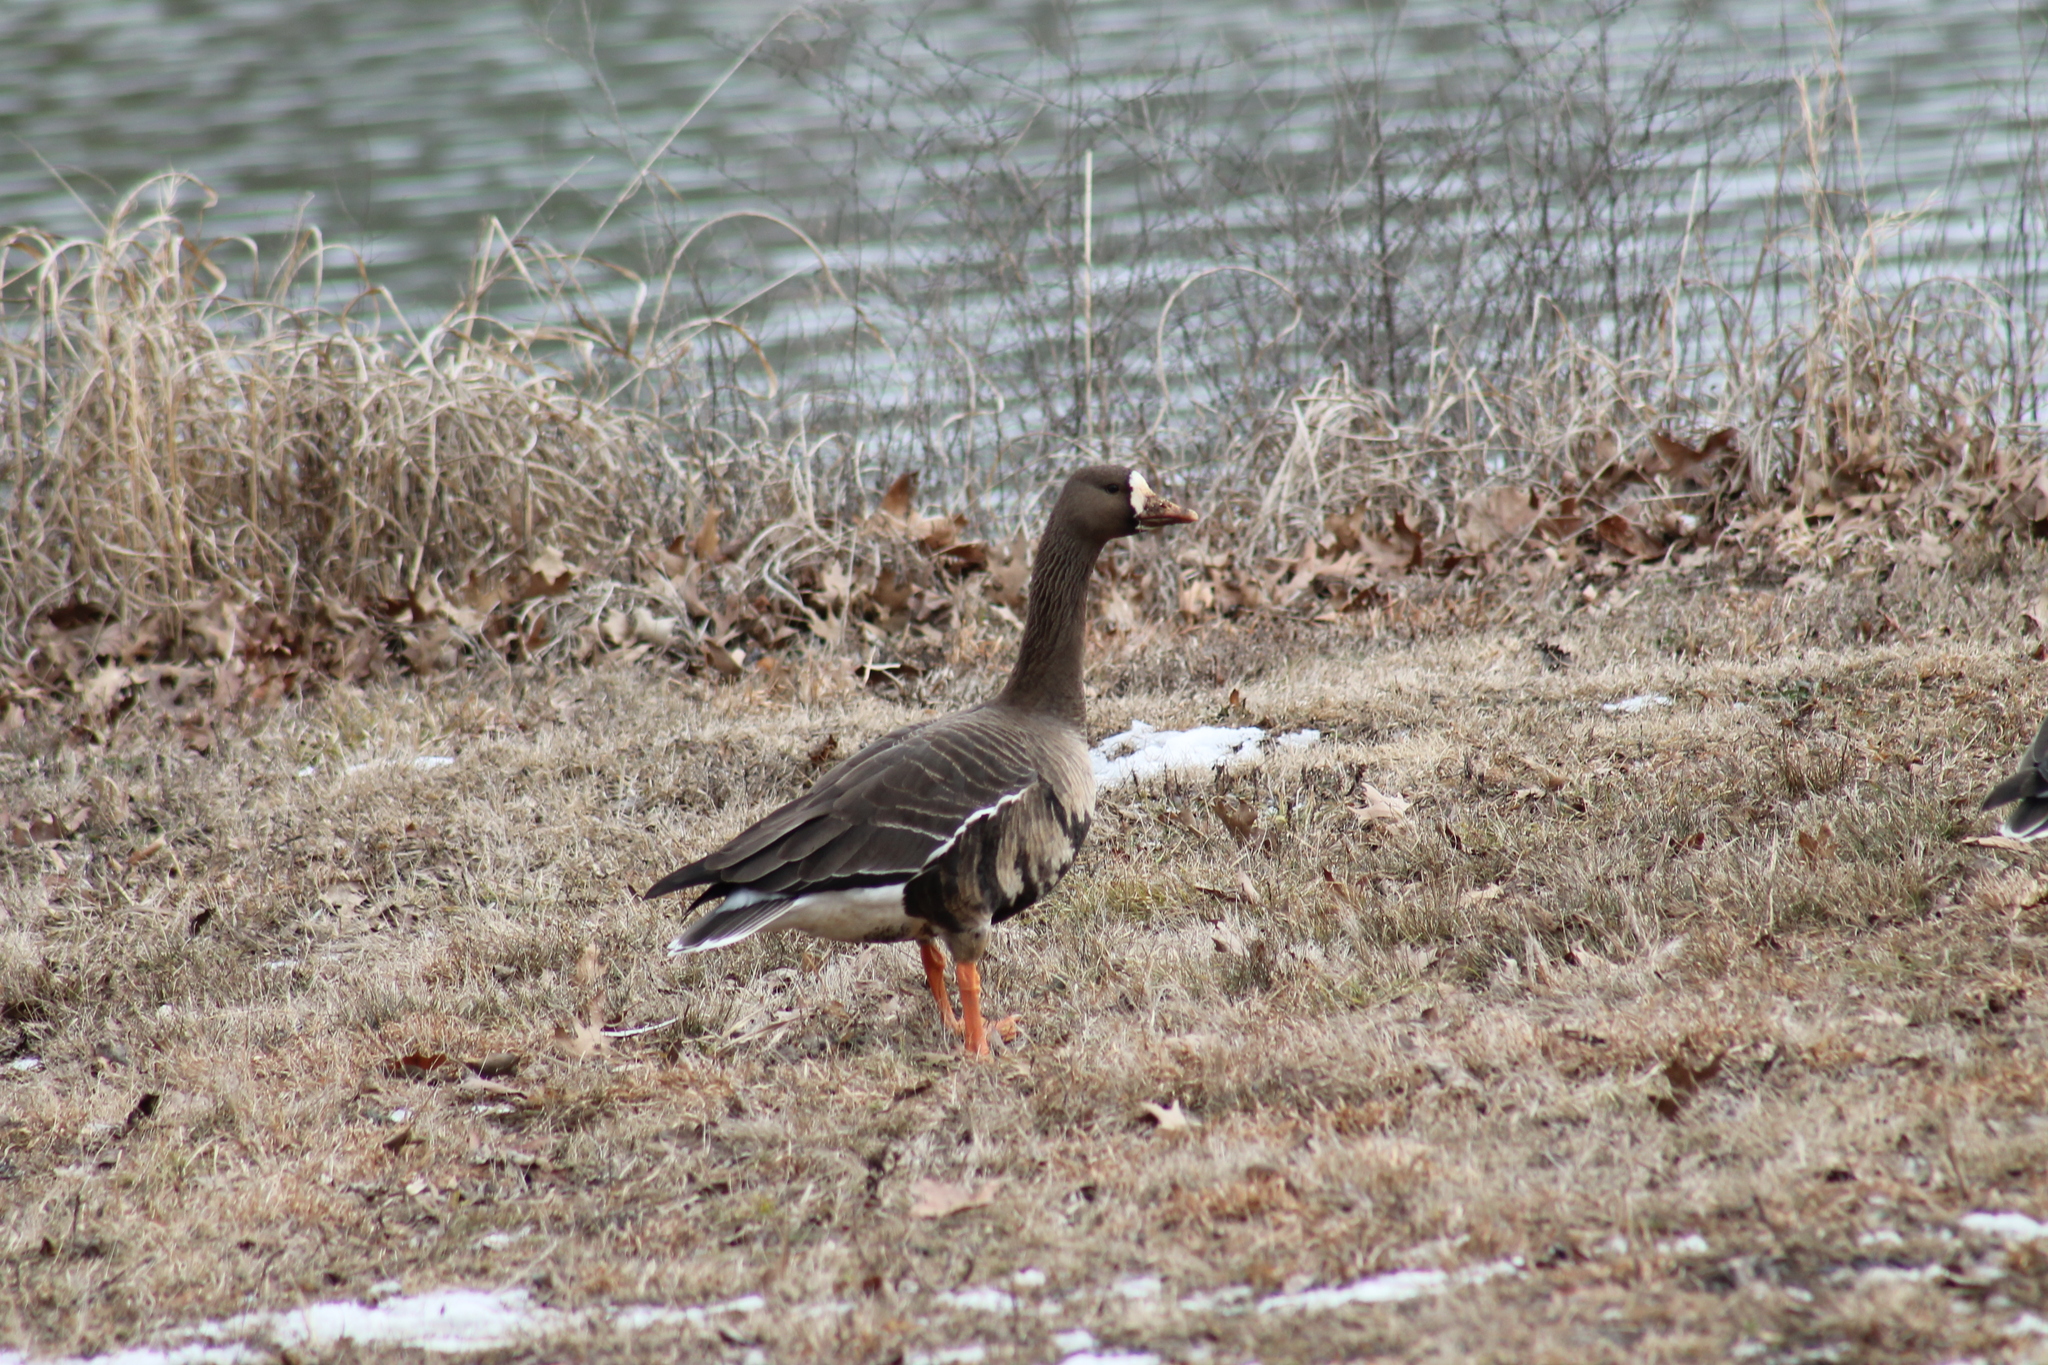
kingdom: Animalia
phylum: Chordata
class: Aves
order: Anseriformes
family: Anatidae
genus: Anser
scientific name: Anser albifrons
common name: Greater white-fronted goose
